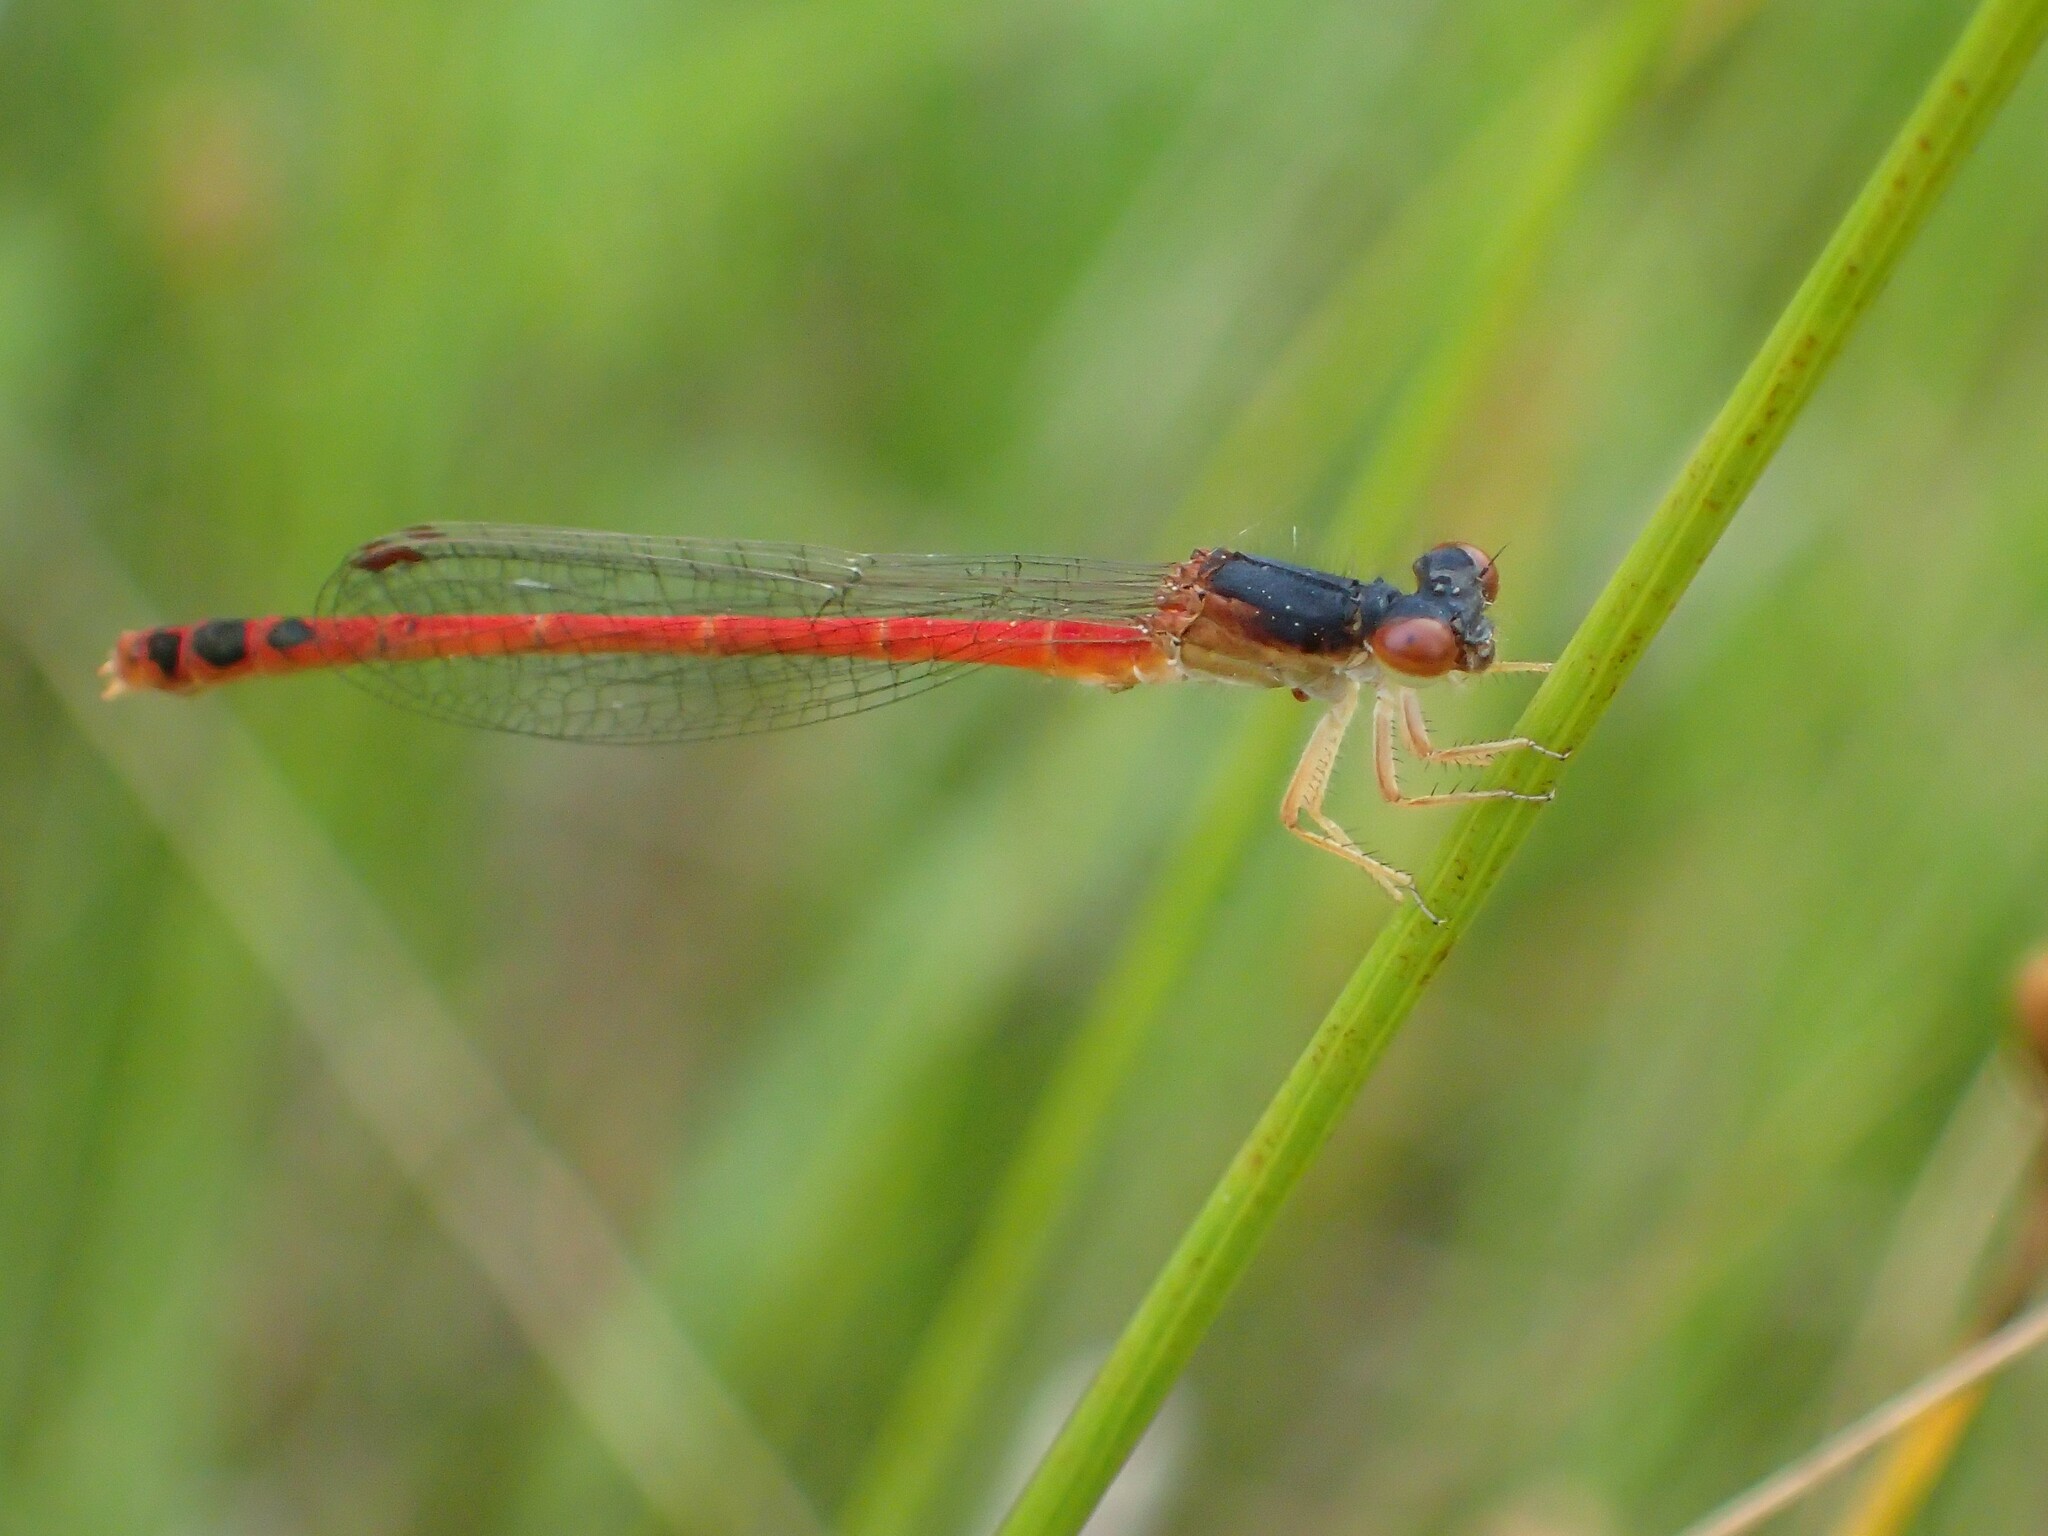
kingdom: Animalia
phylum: Arthropoda
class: Insecta
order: Odonata
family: Coenagrionidae
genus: Amphiagrion
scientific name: Amphiagrion saucium
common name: Eastern red damsel
